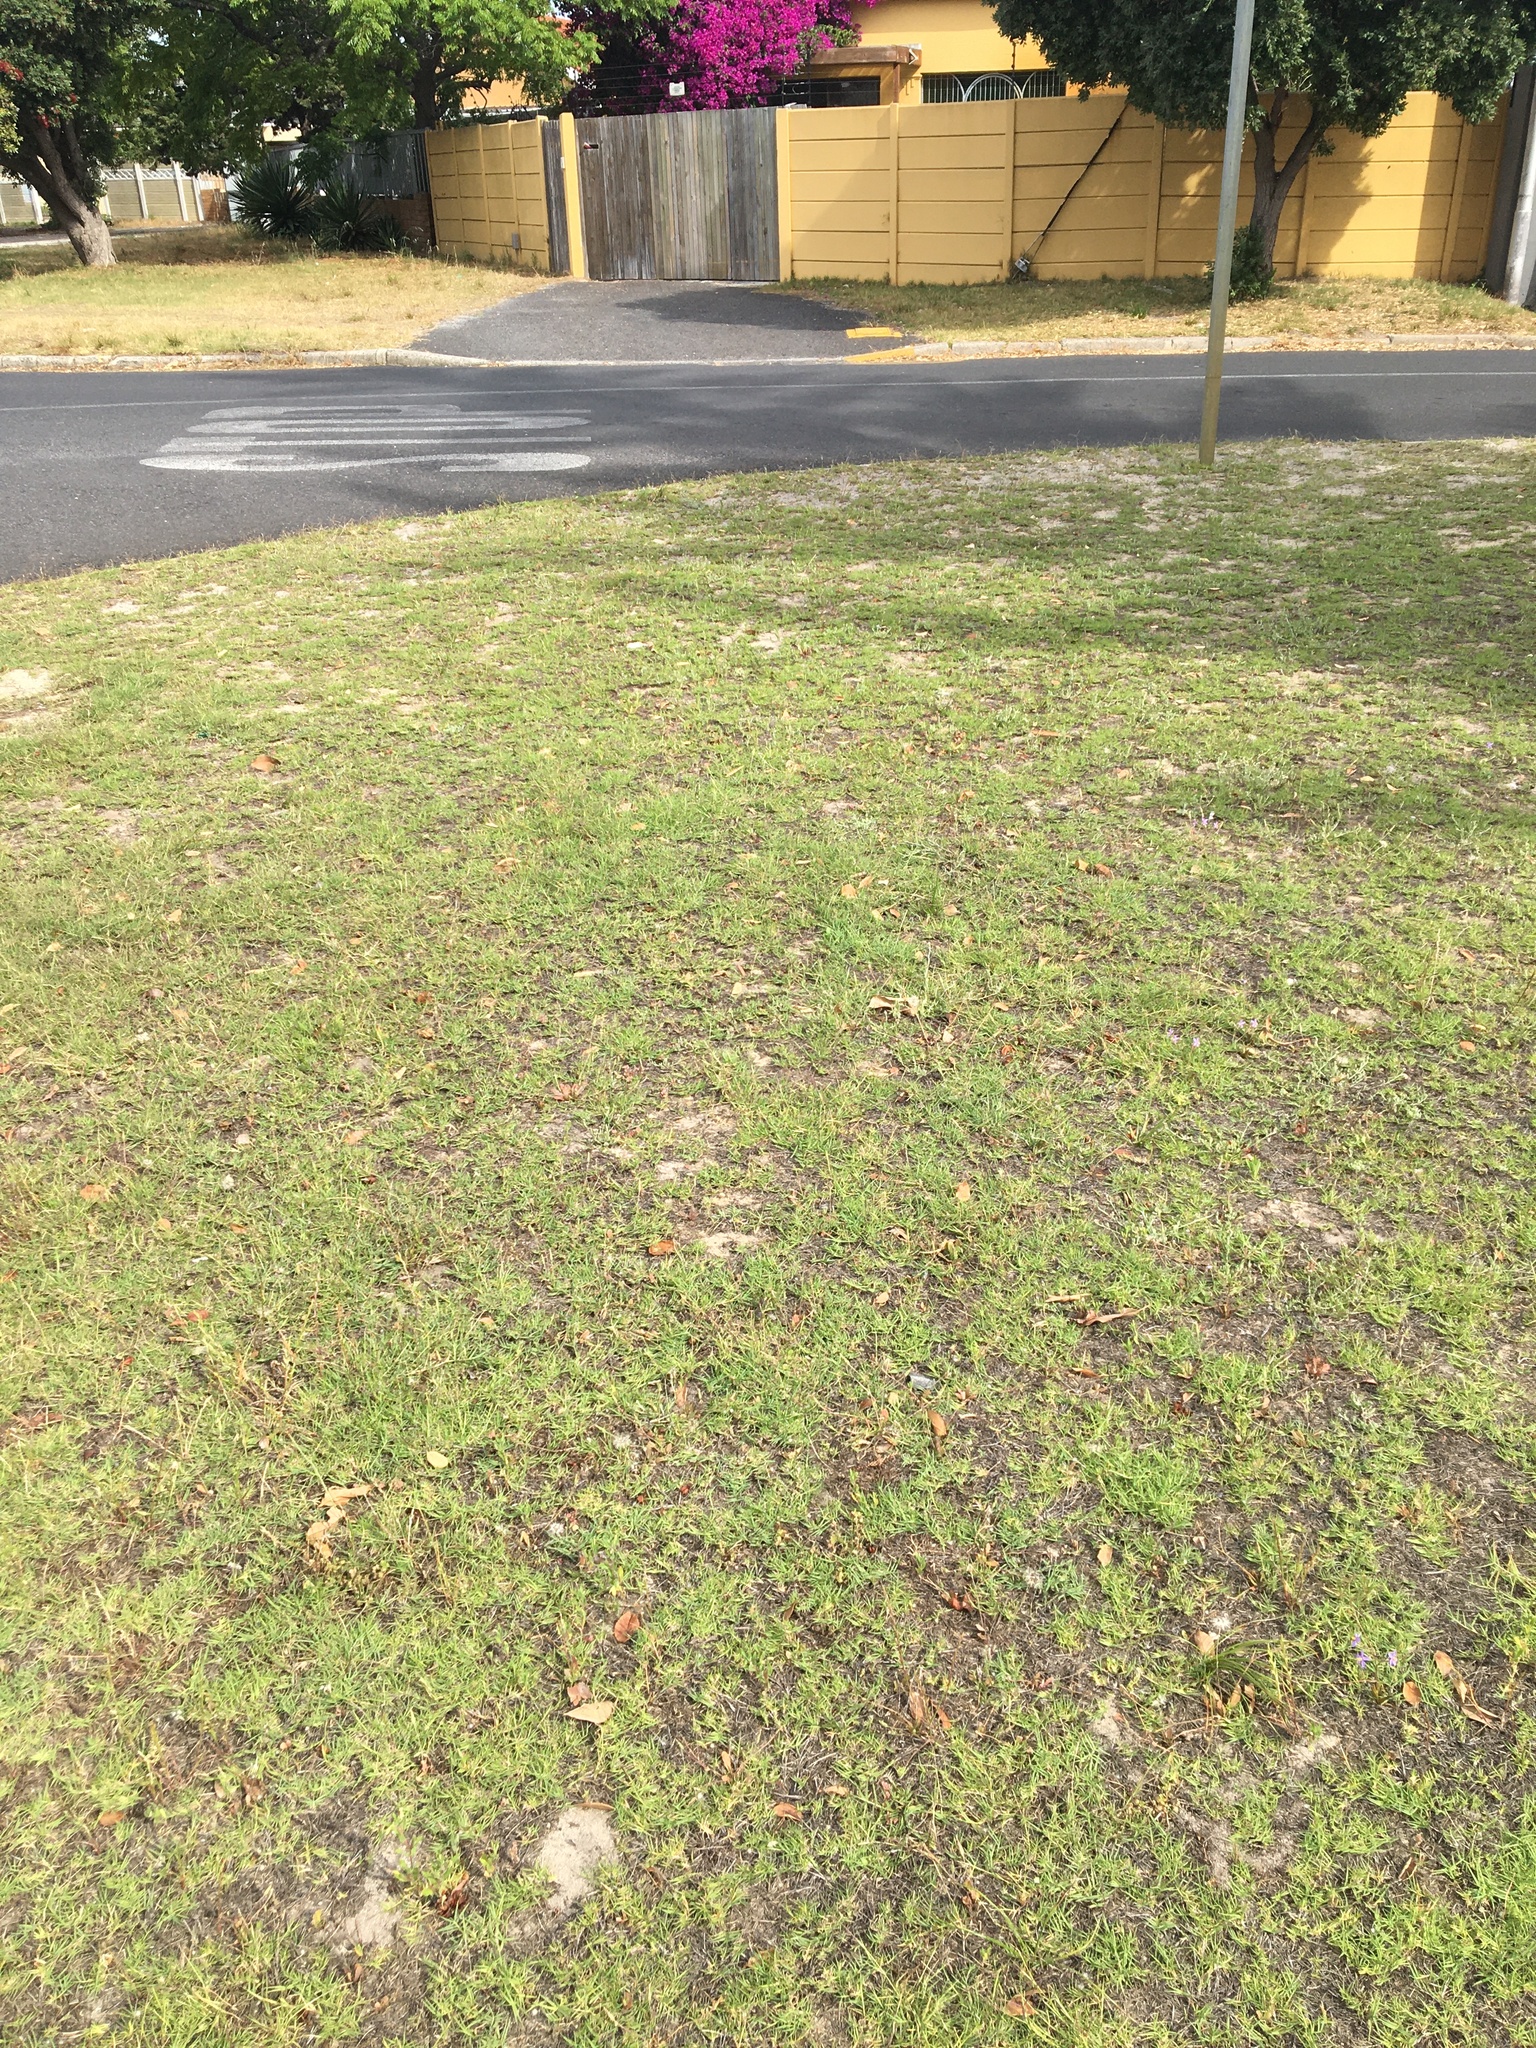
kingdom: Plantae
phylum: Tracheophyta
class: Liliopsida
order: Asparagales
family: Tecophilaeaceae
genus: Cyanella
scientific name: Cyanella hyacinthoides
